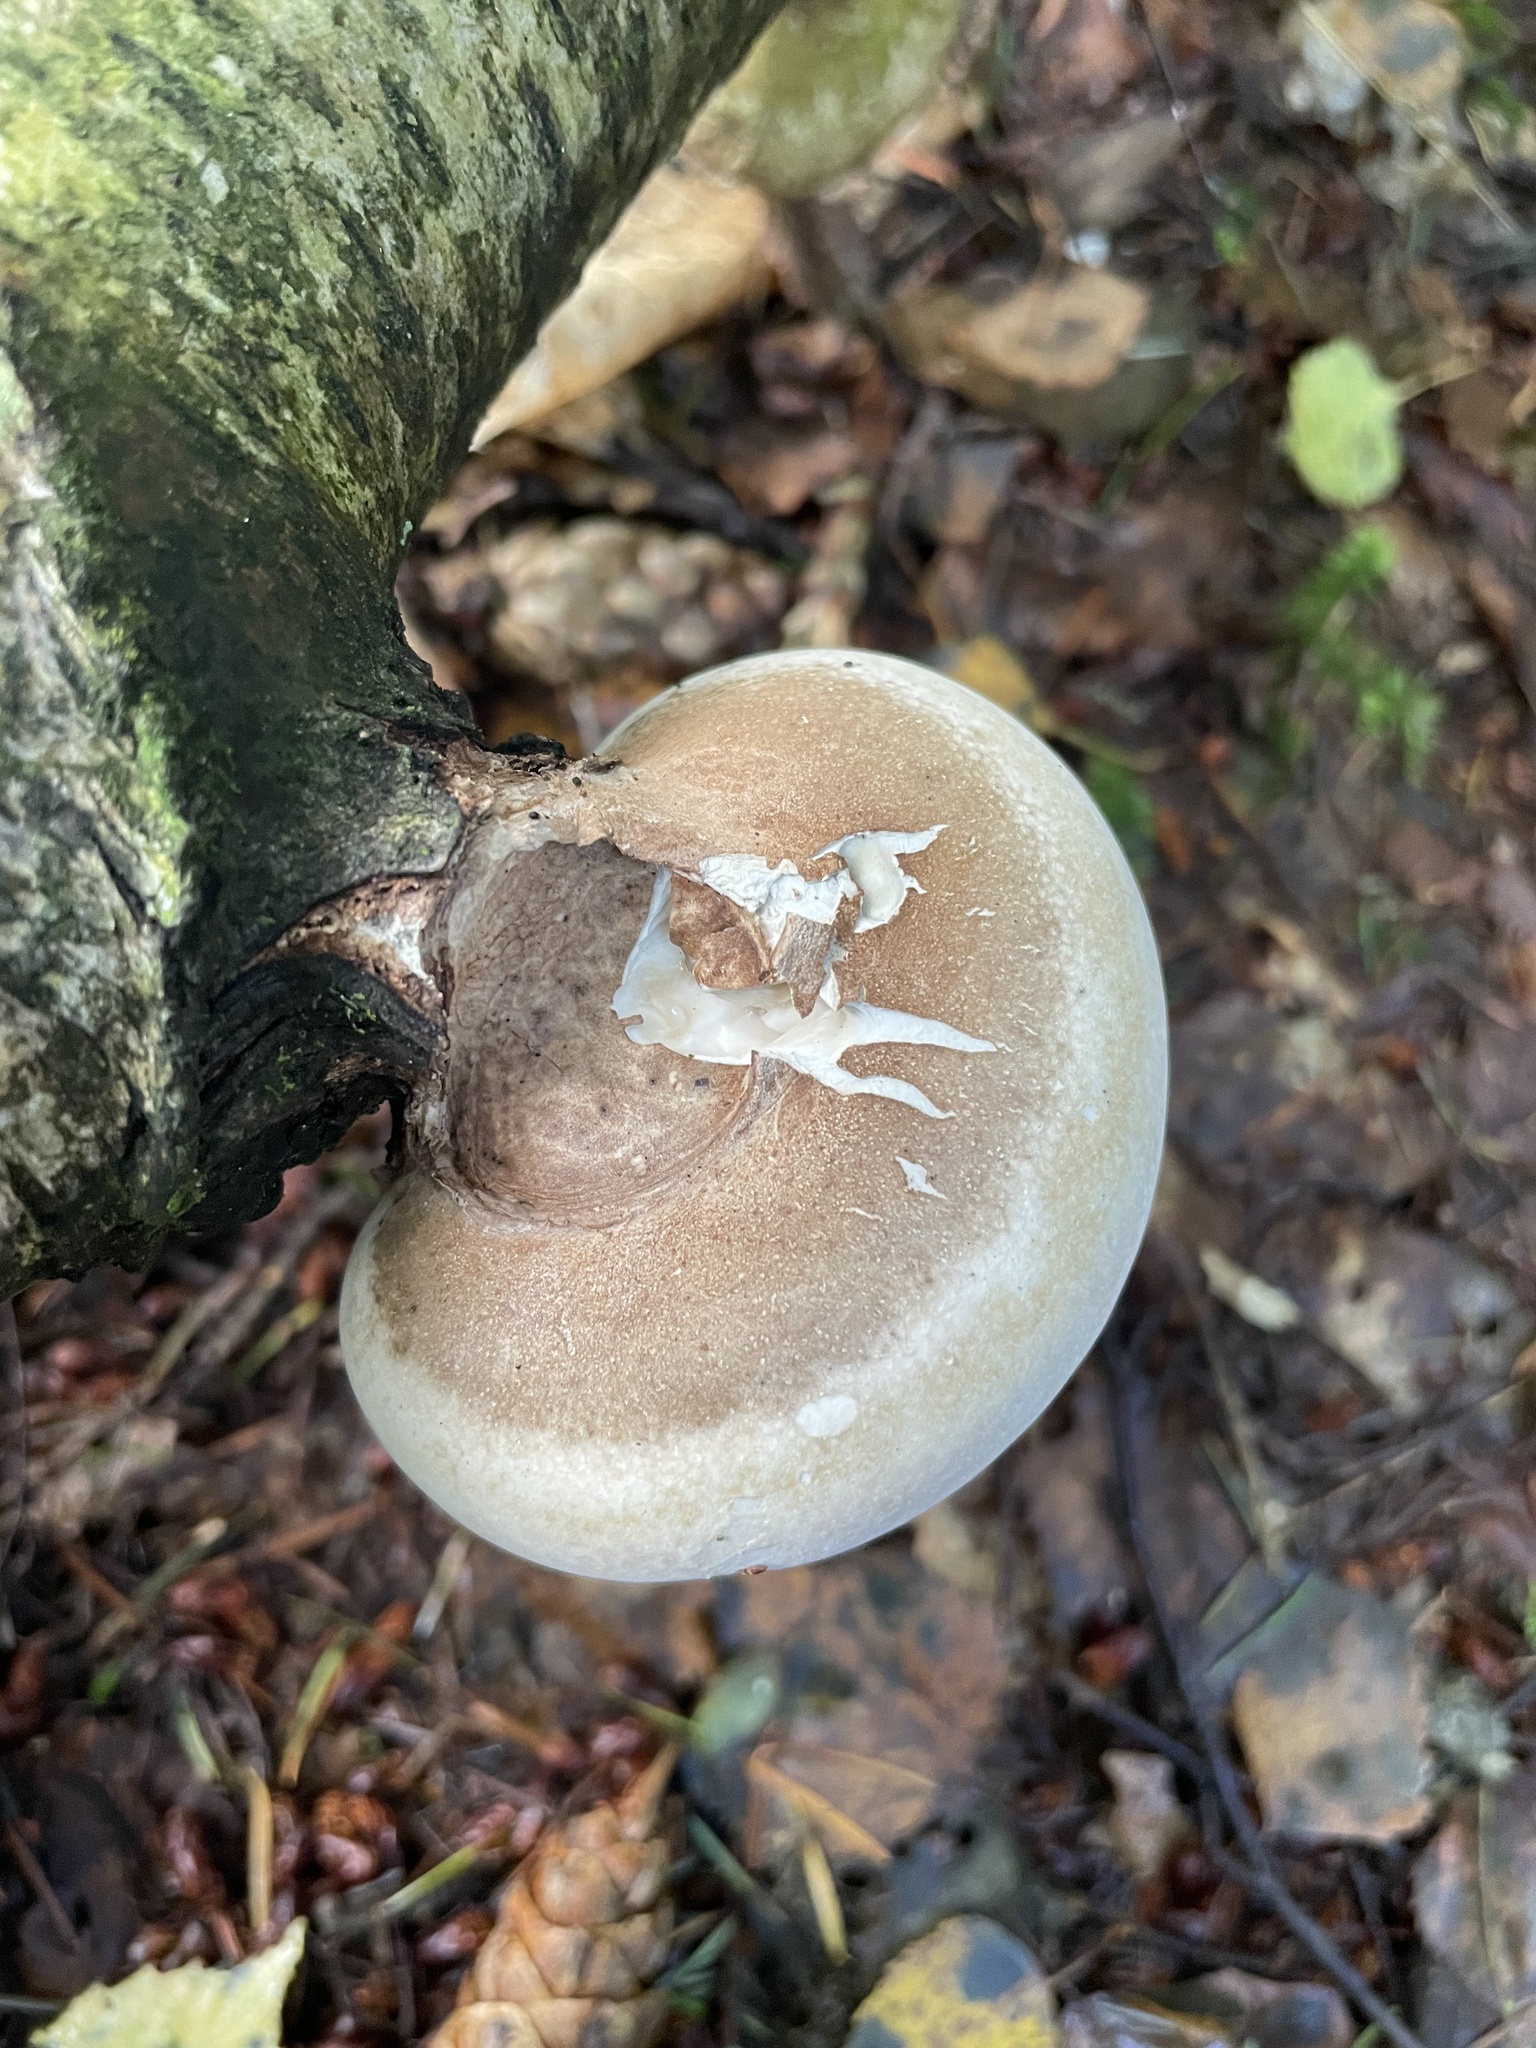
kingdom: Fungi
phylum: Basidiomycota
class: Agaricomycetes
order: Polyporales
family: Fomitopsidaceae
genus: Fomitopsis
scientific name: Fomitopsis betulina
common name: Birch polypore
